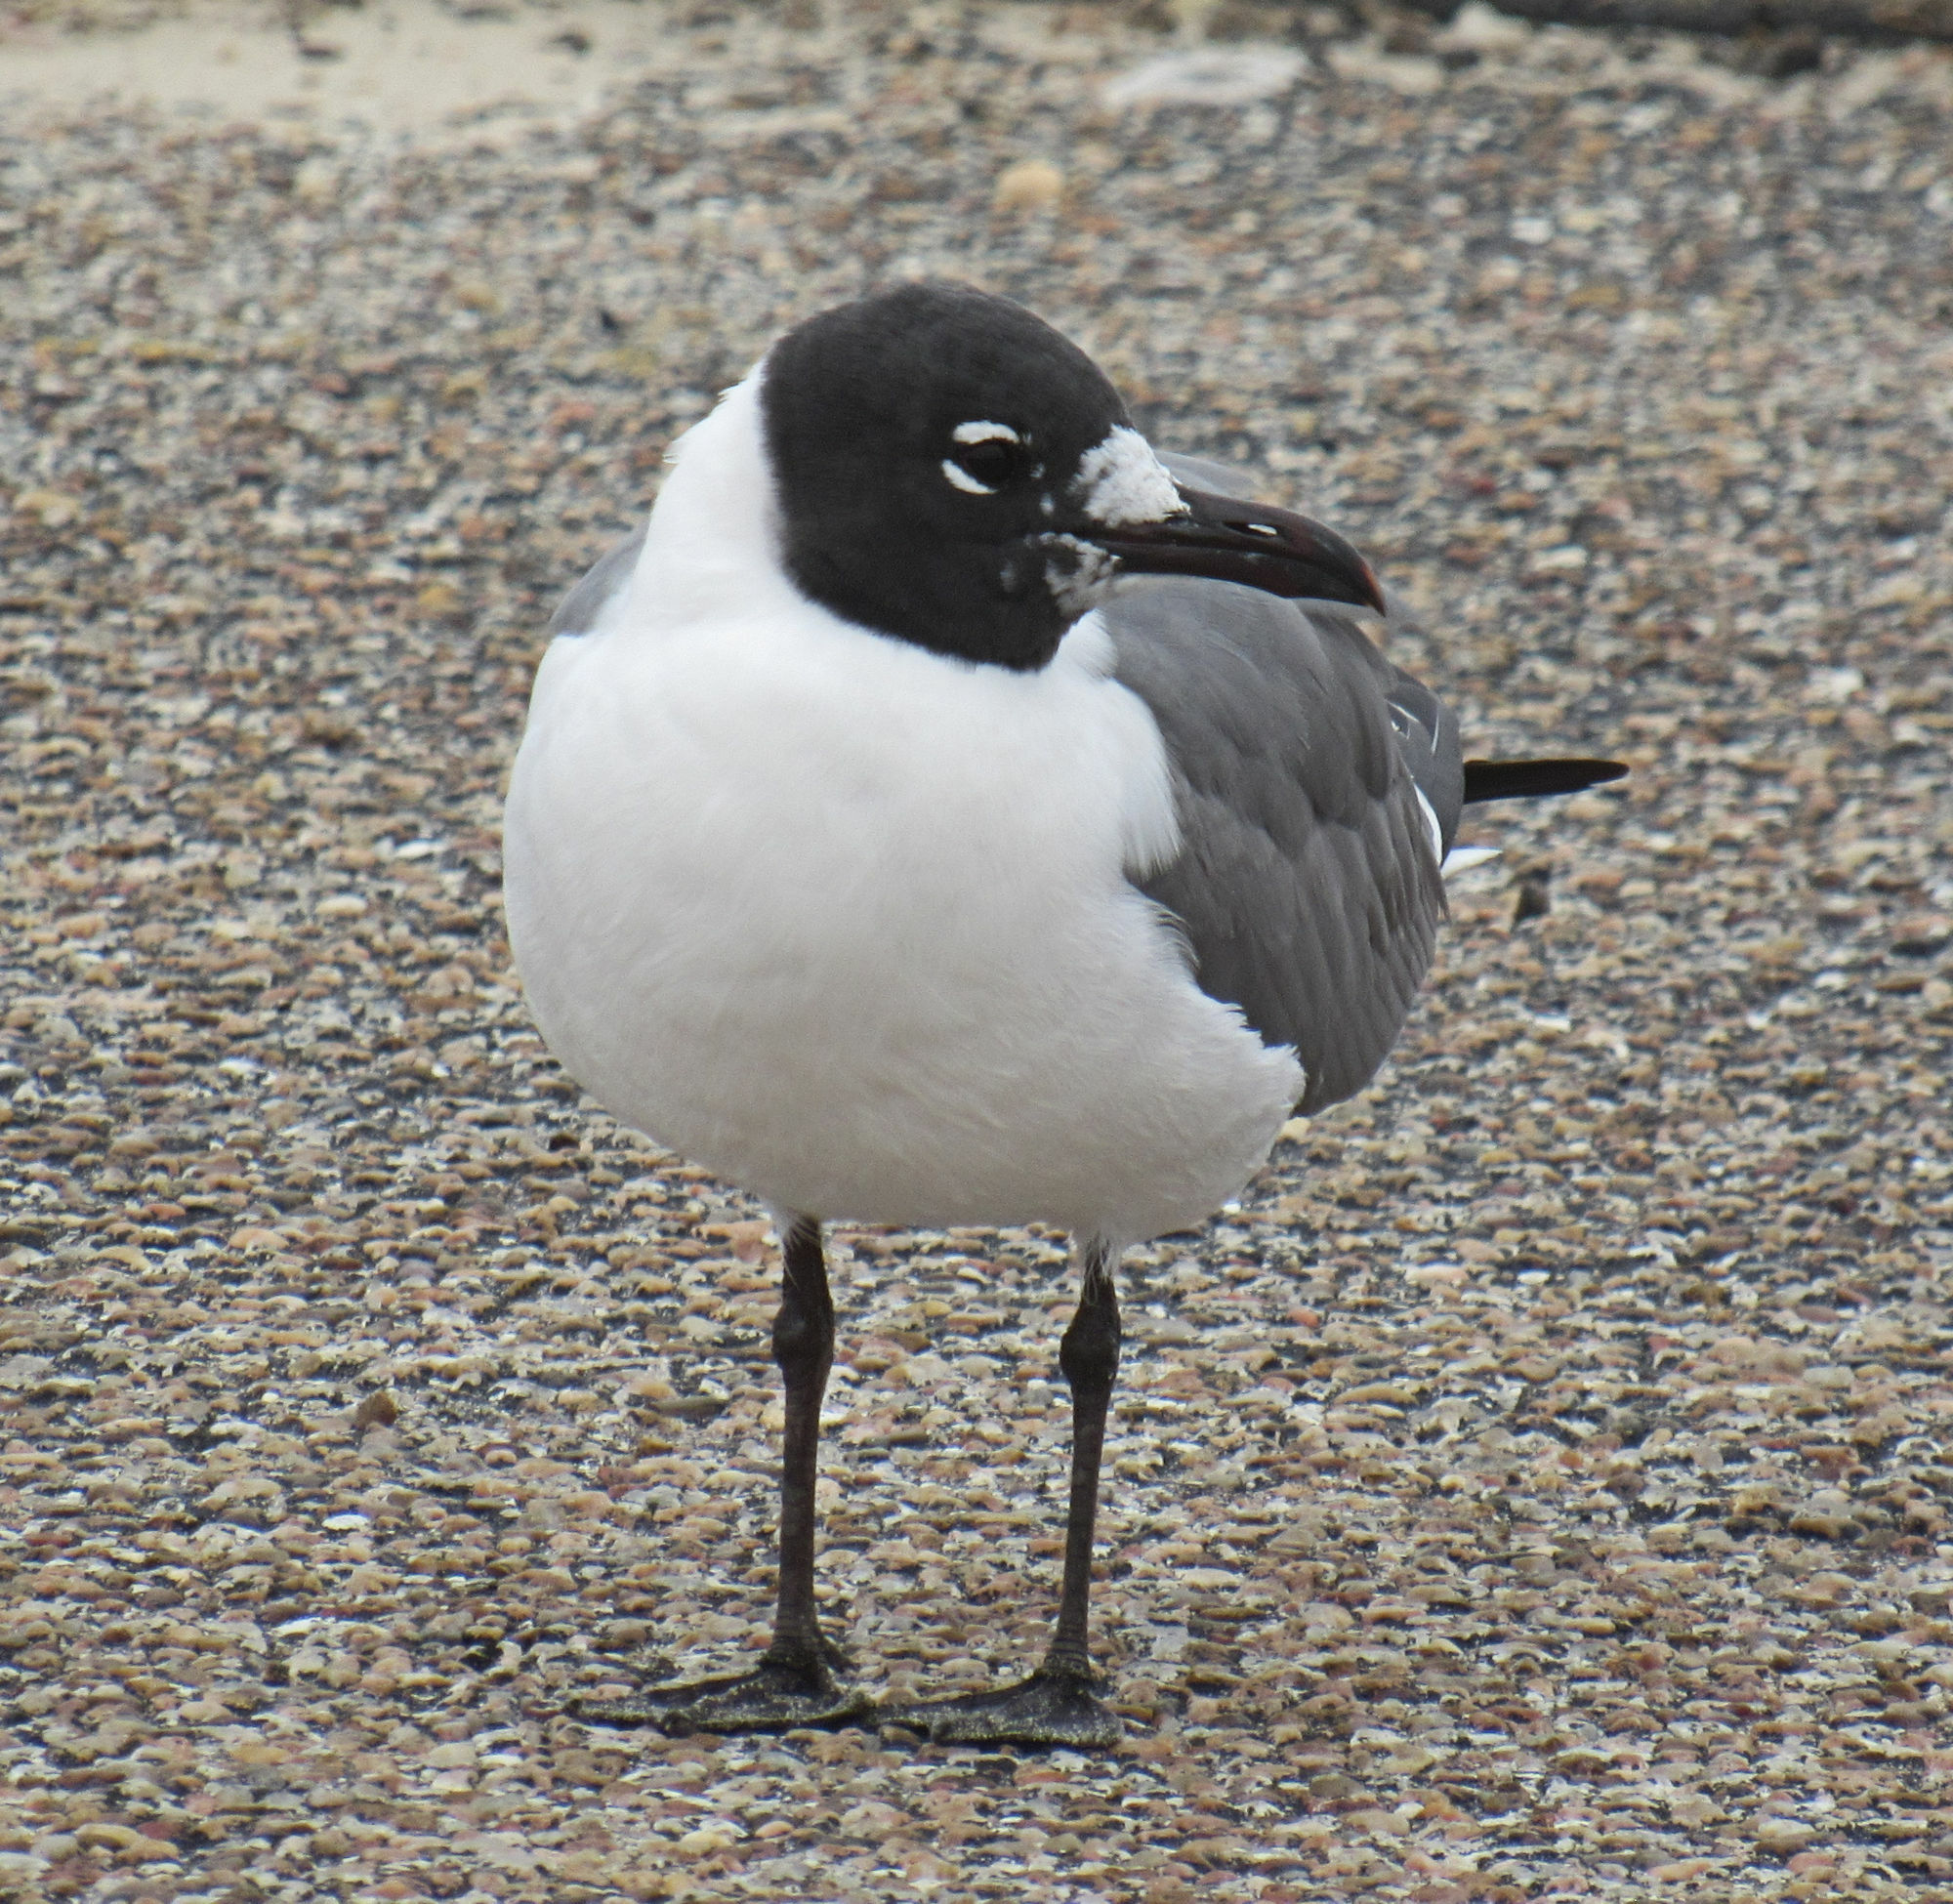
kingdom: Animalia
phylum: Chordata
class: Aves
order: Charadriiformes
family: Laridae
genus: Leucophaeus
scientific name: Leucophaeus atricilla
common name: Laughing gull
